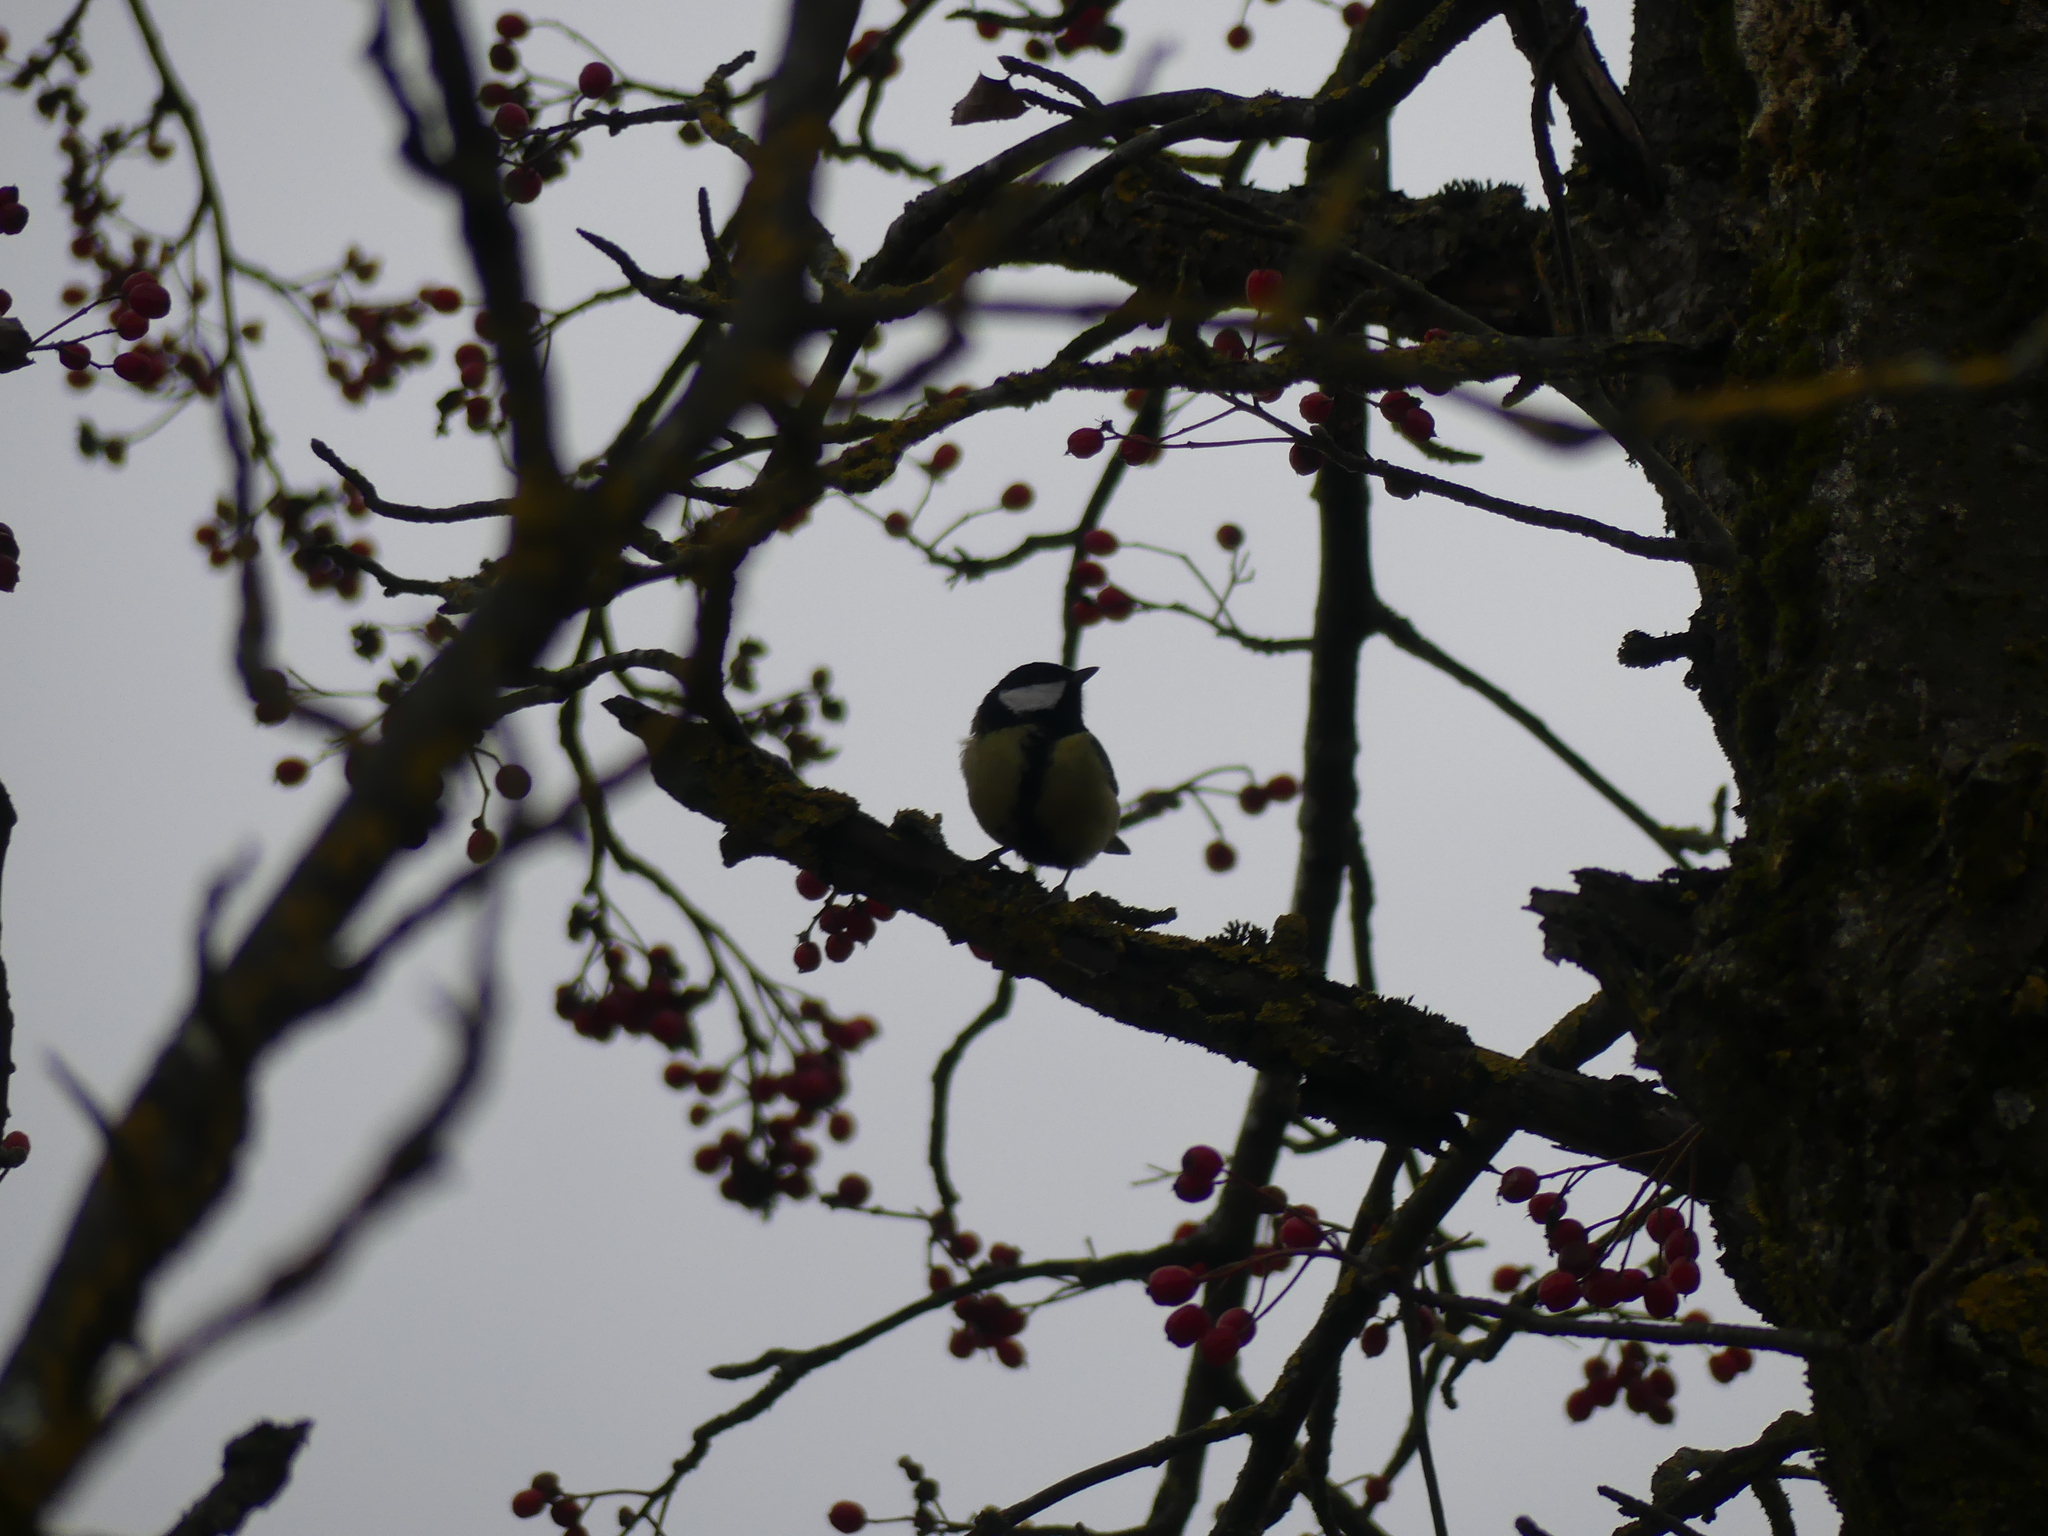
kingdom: Animalia
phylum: Chordata
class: Aves
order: Passeriformes
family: Paridae
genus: Parus
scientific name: Parus major
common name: Great tit
